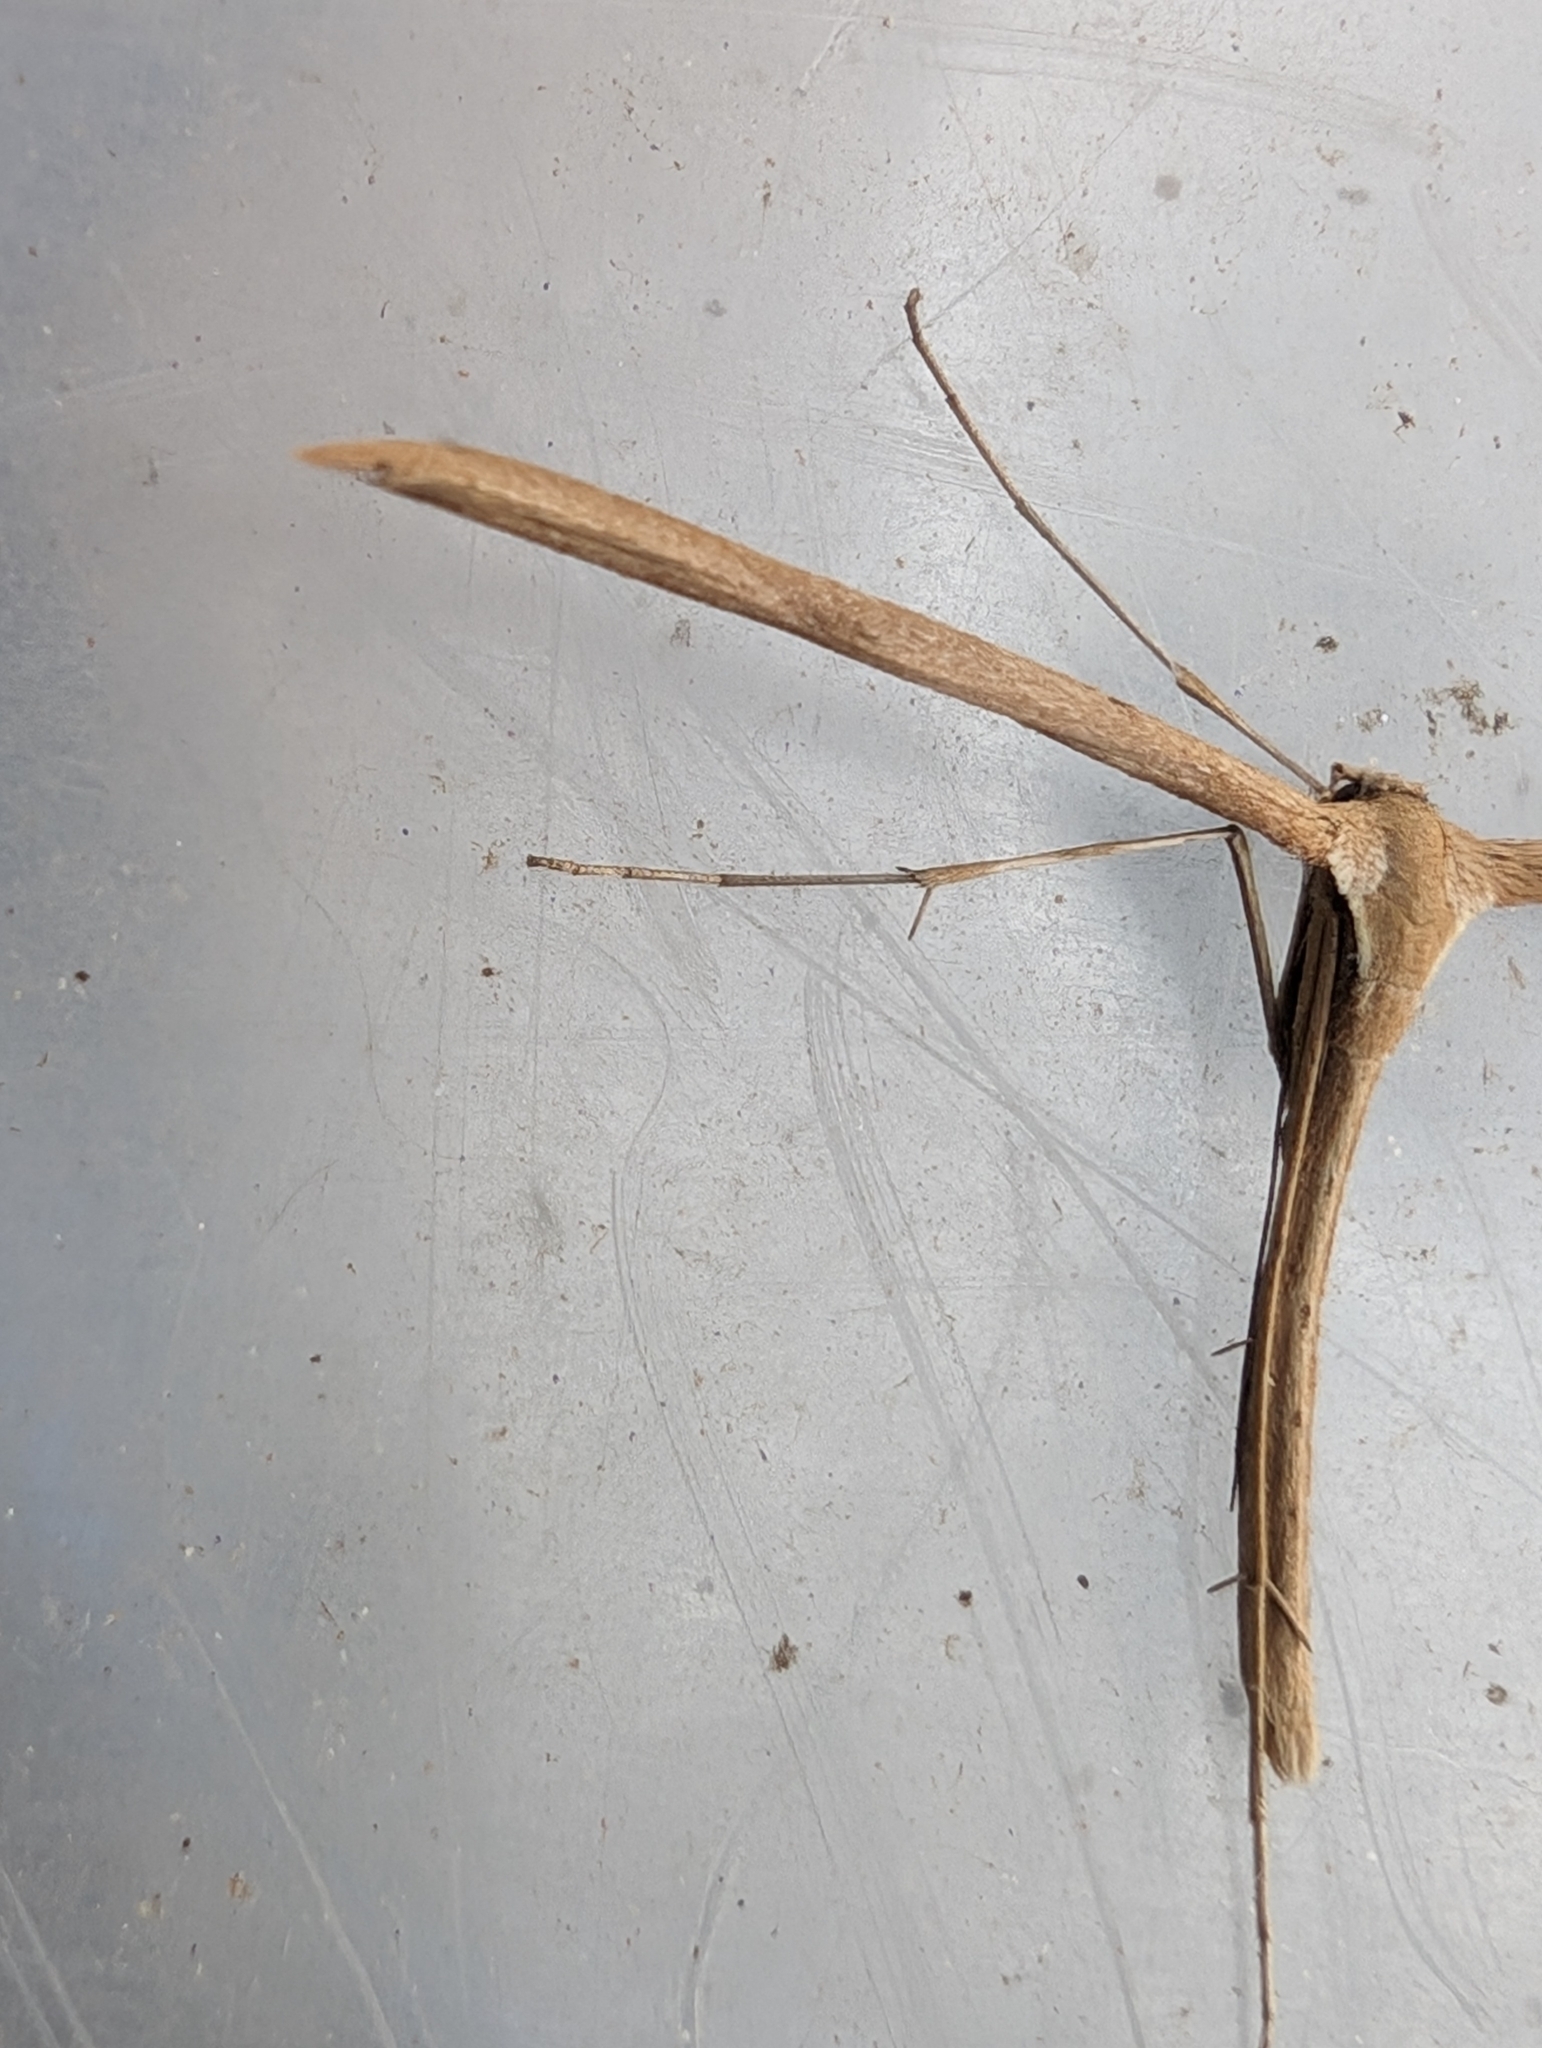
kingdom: Animalia
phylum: Arthropoda
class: Insecta
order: Lepidoptera
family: Pterophoridae
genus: Emmelina
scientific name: Emmelina monodactyla
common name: Common plume
